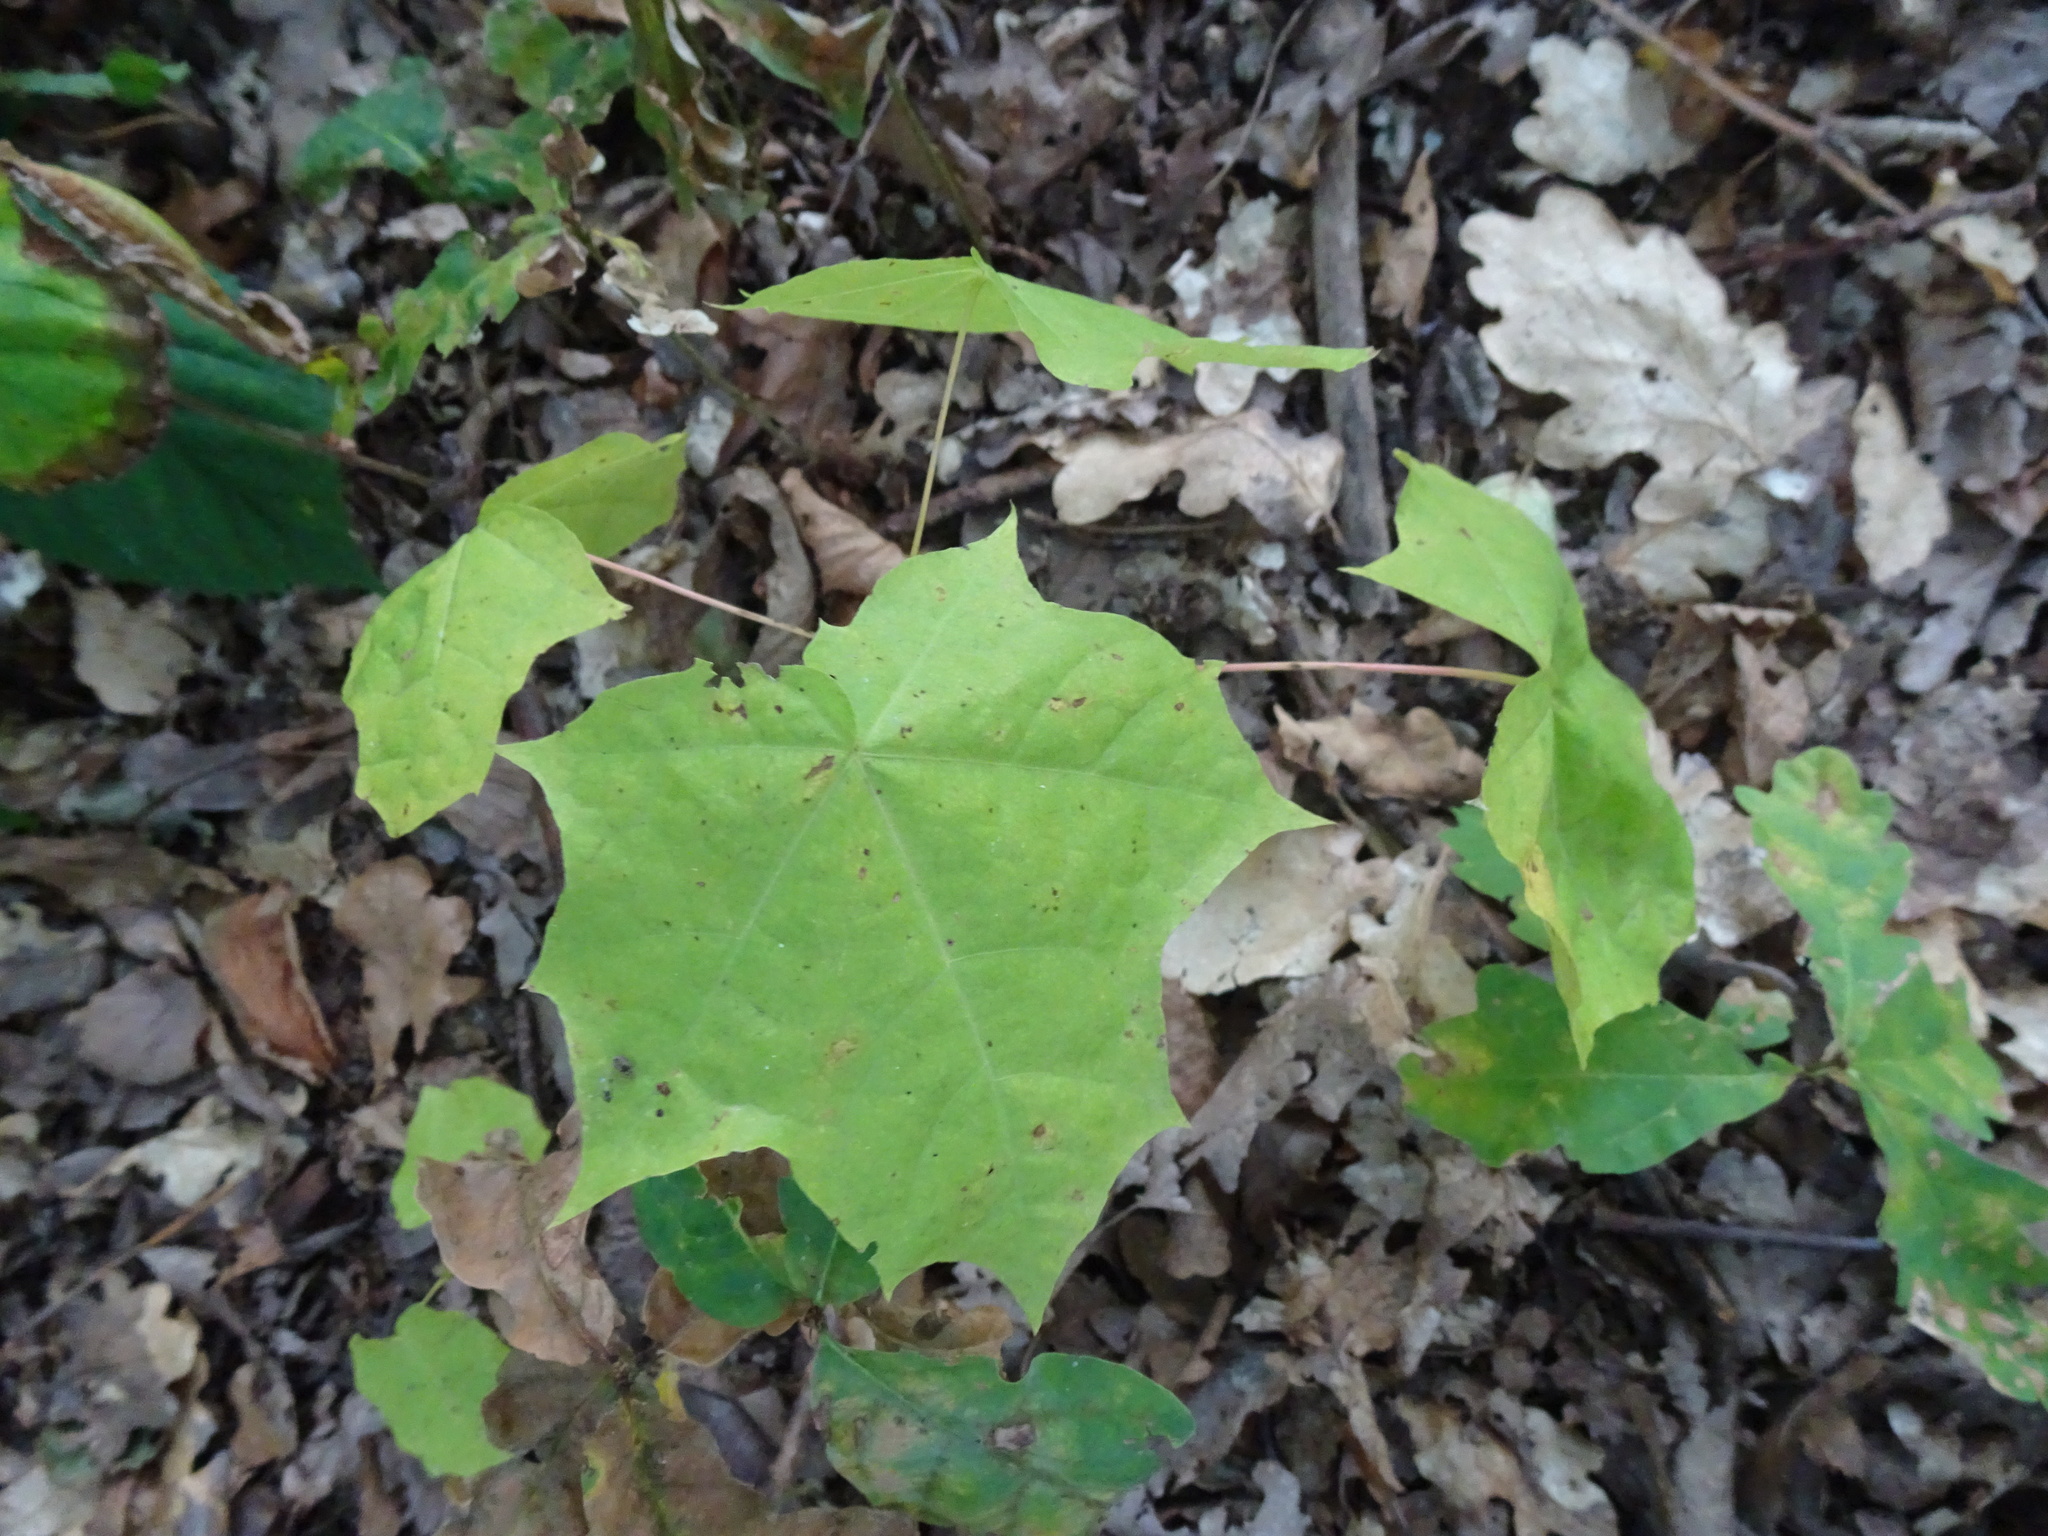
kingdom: Plantae
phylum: Tracheophyta
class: Magnoliopsida
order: Sapindales
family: Sapindaceae
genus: Acer
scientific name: Acer platanoides
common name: Norway maple
